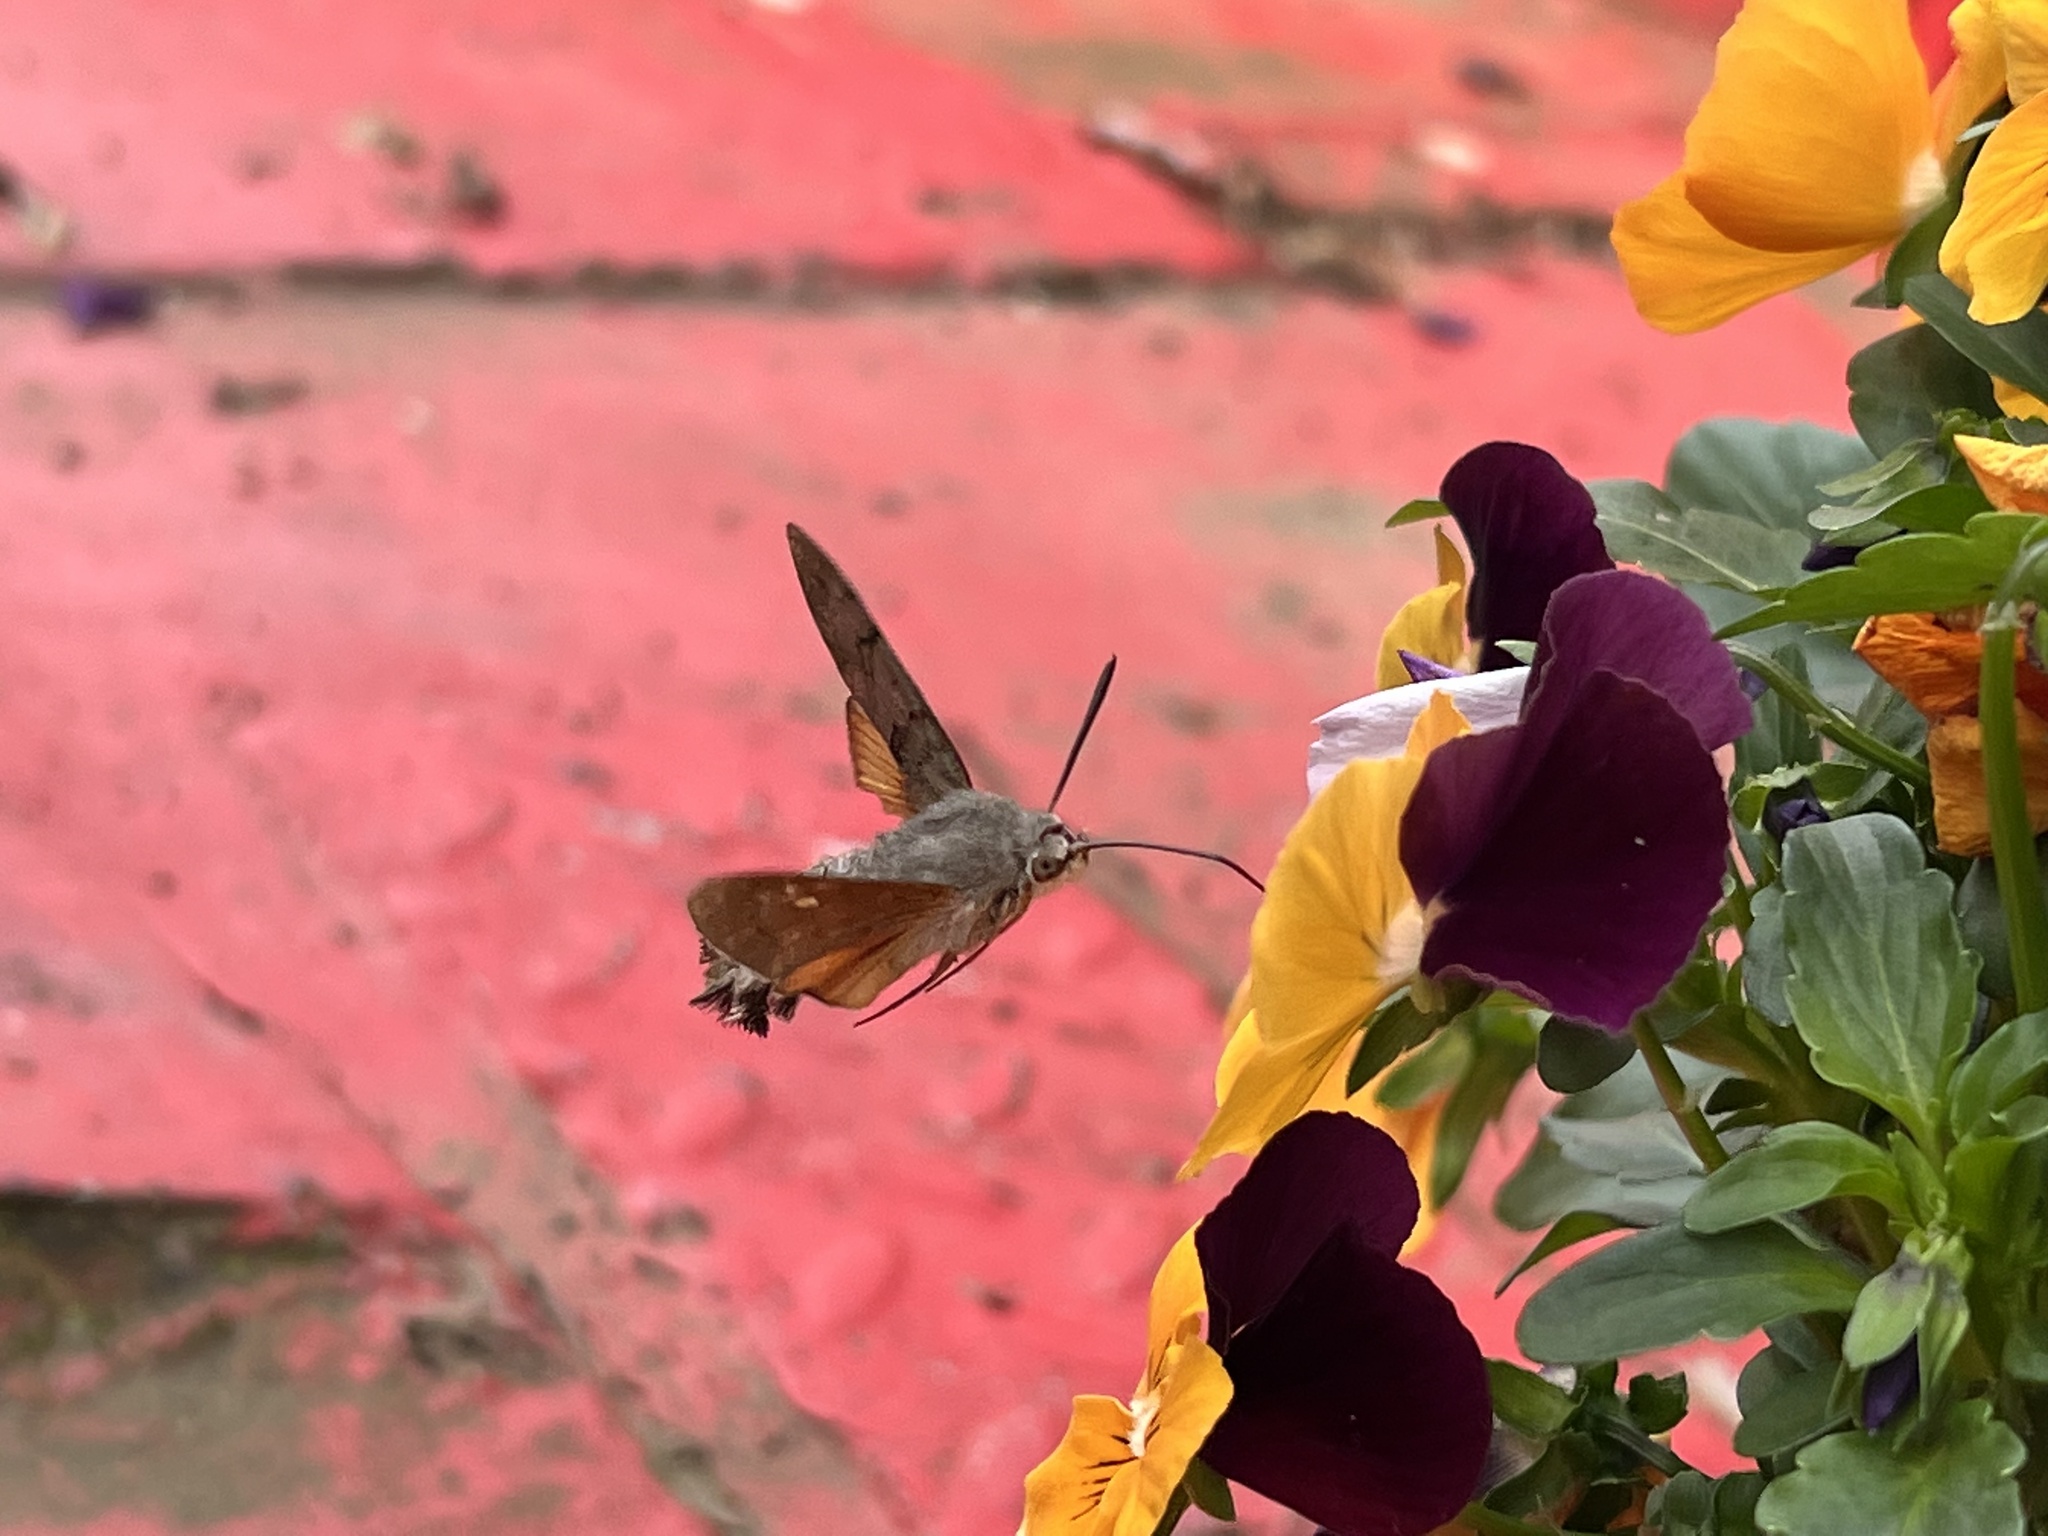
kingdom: Animalia
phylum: Arthropoda
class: Insecta
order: Lepidoptera
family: Sphingidae
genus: Macroglossum
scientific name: Macroglossum stellatarum
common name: Humming-bird hawk-moth
